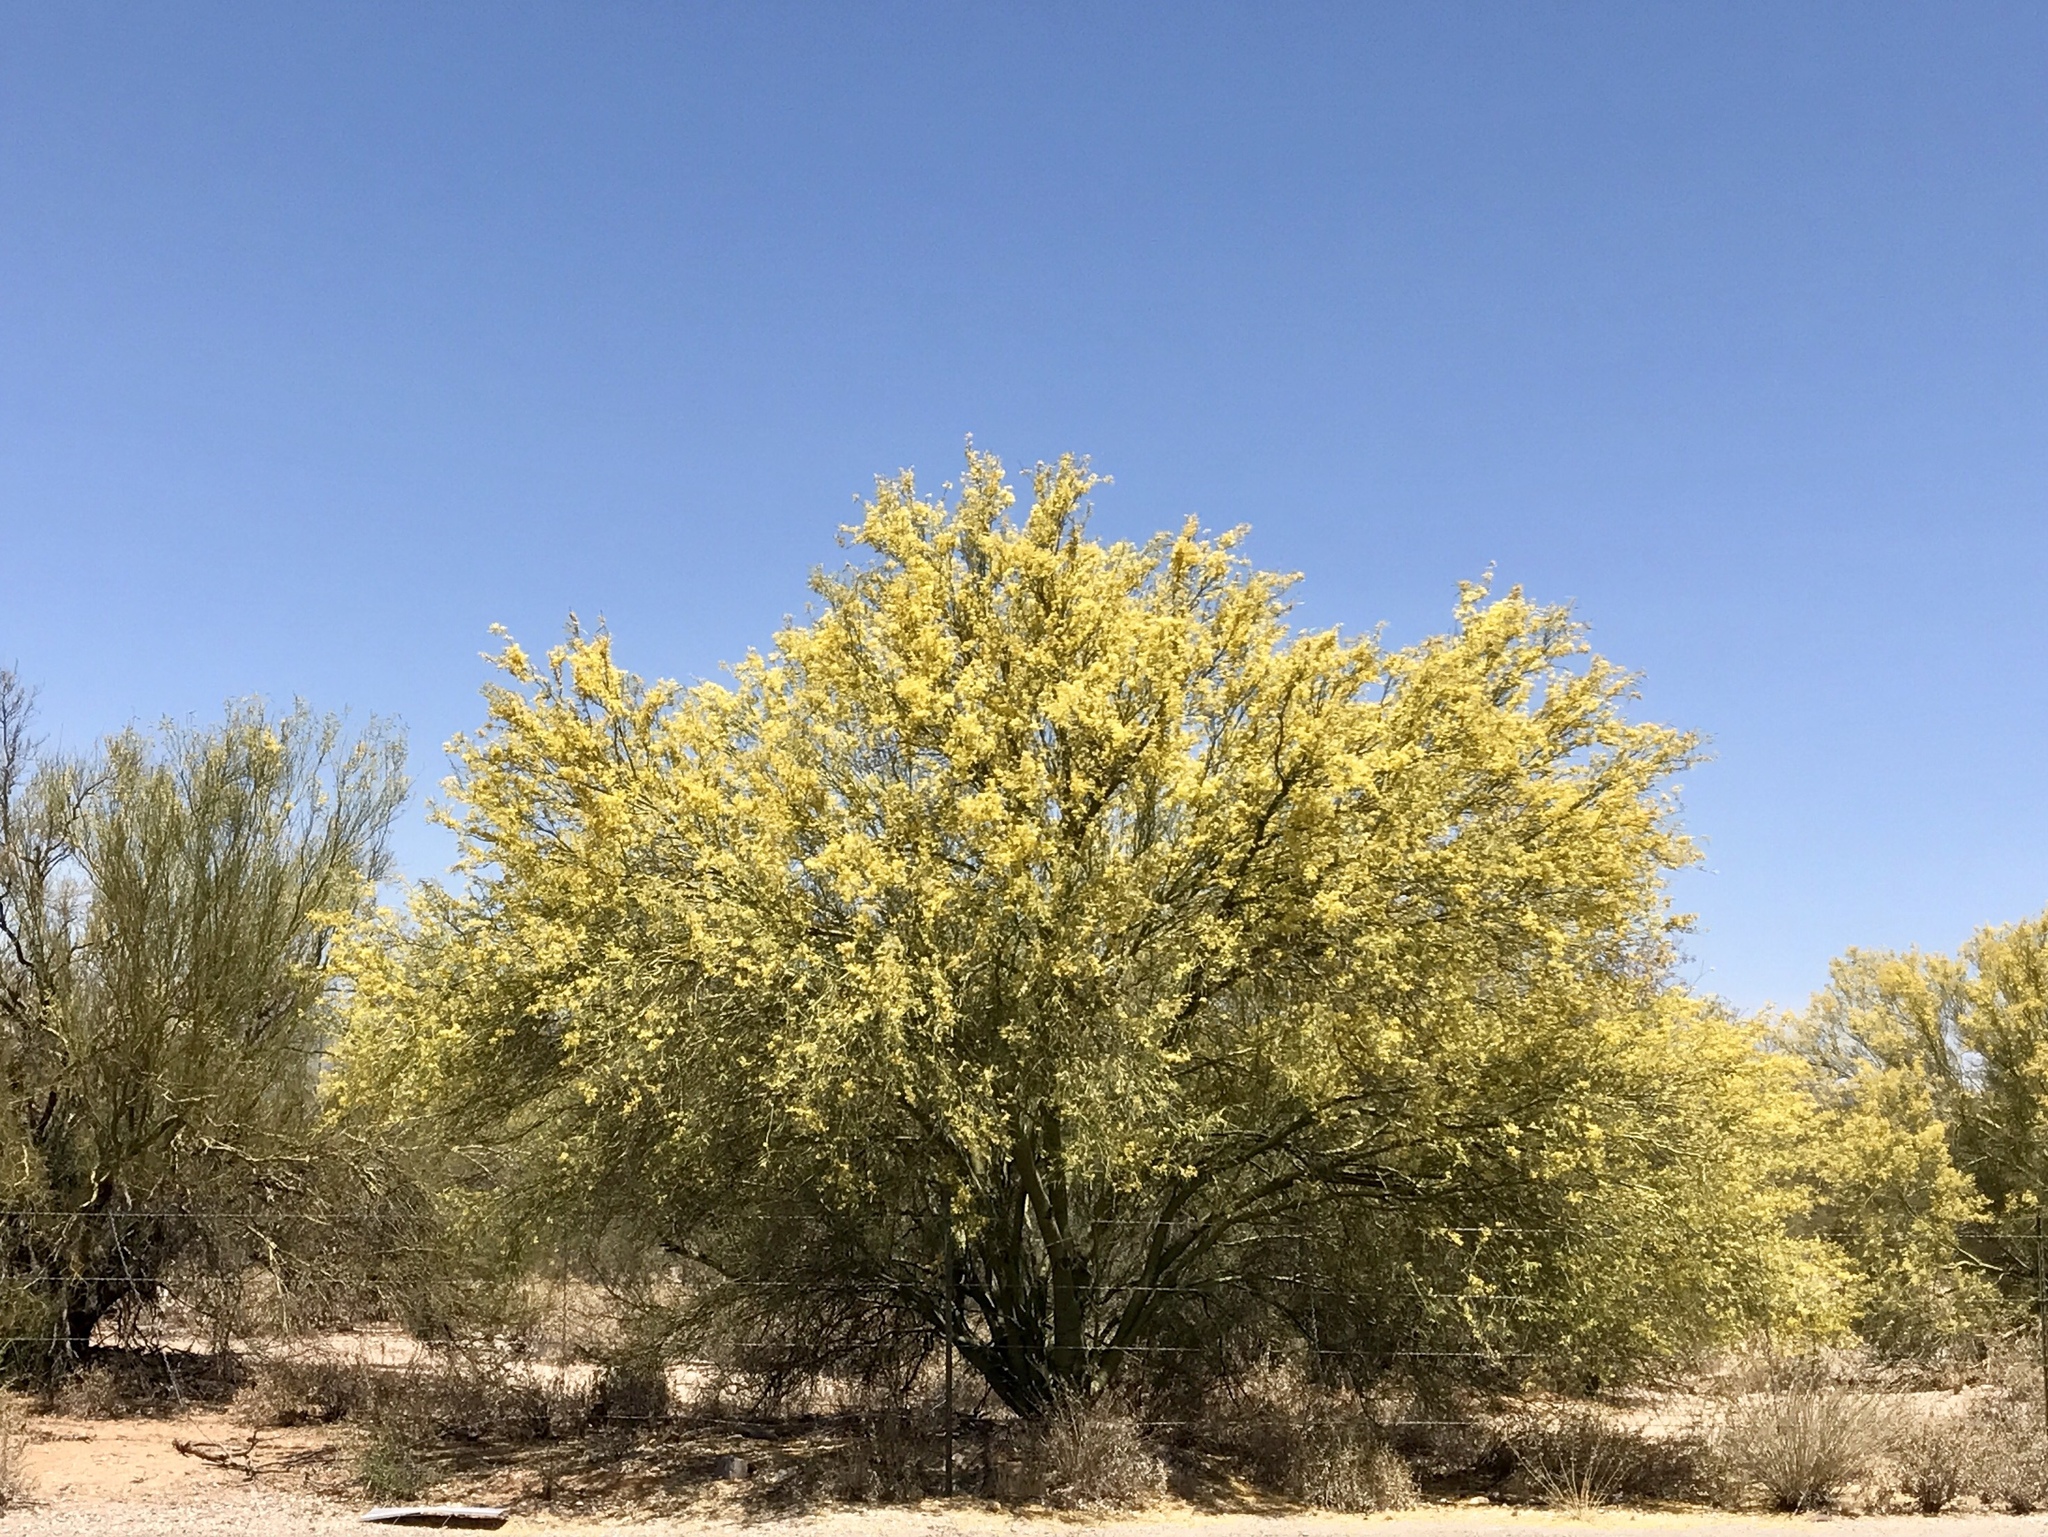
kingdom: Plantae
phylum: Tracheophyta
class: Magnoliopsida
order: Fabales
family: Fabaceae
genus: Parkinsonia
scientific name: Parkinsonia microphylla
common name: Yellow paloverde
